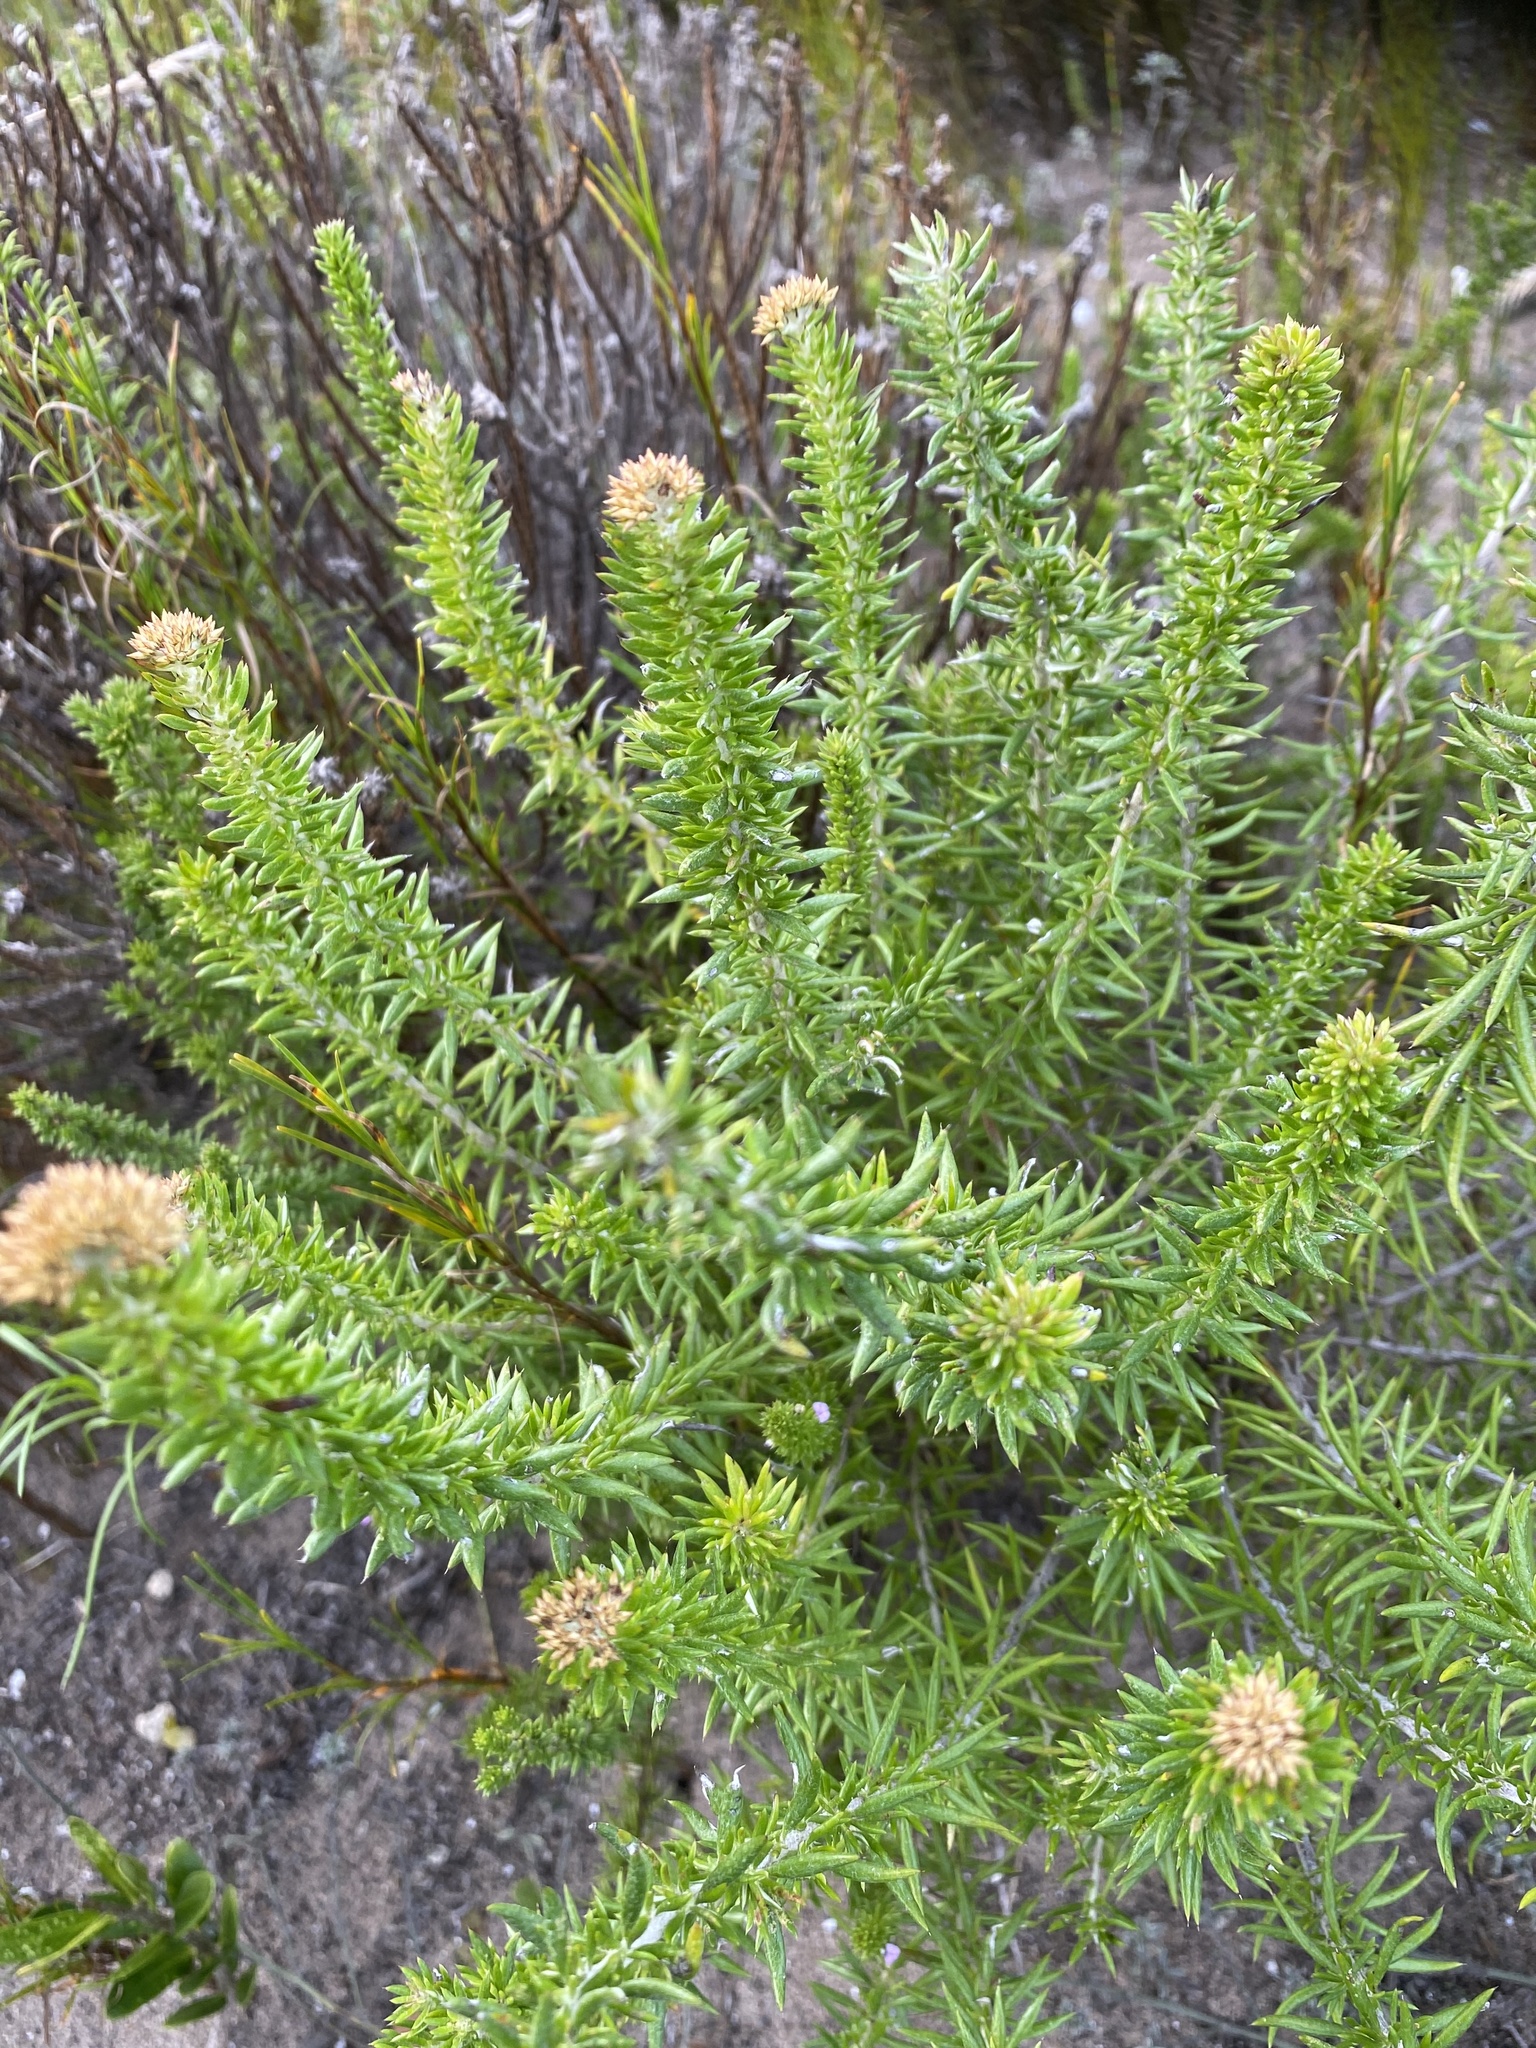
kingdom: Plantae
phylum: Tracheophyta
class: Magnoliopsida
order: Asterales
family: Asteraceae
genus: Metalasia
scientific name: Metalasia densa
